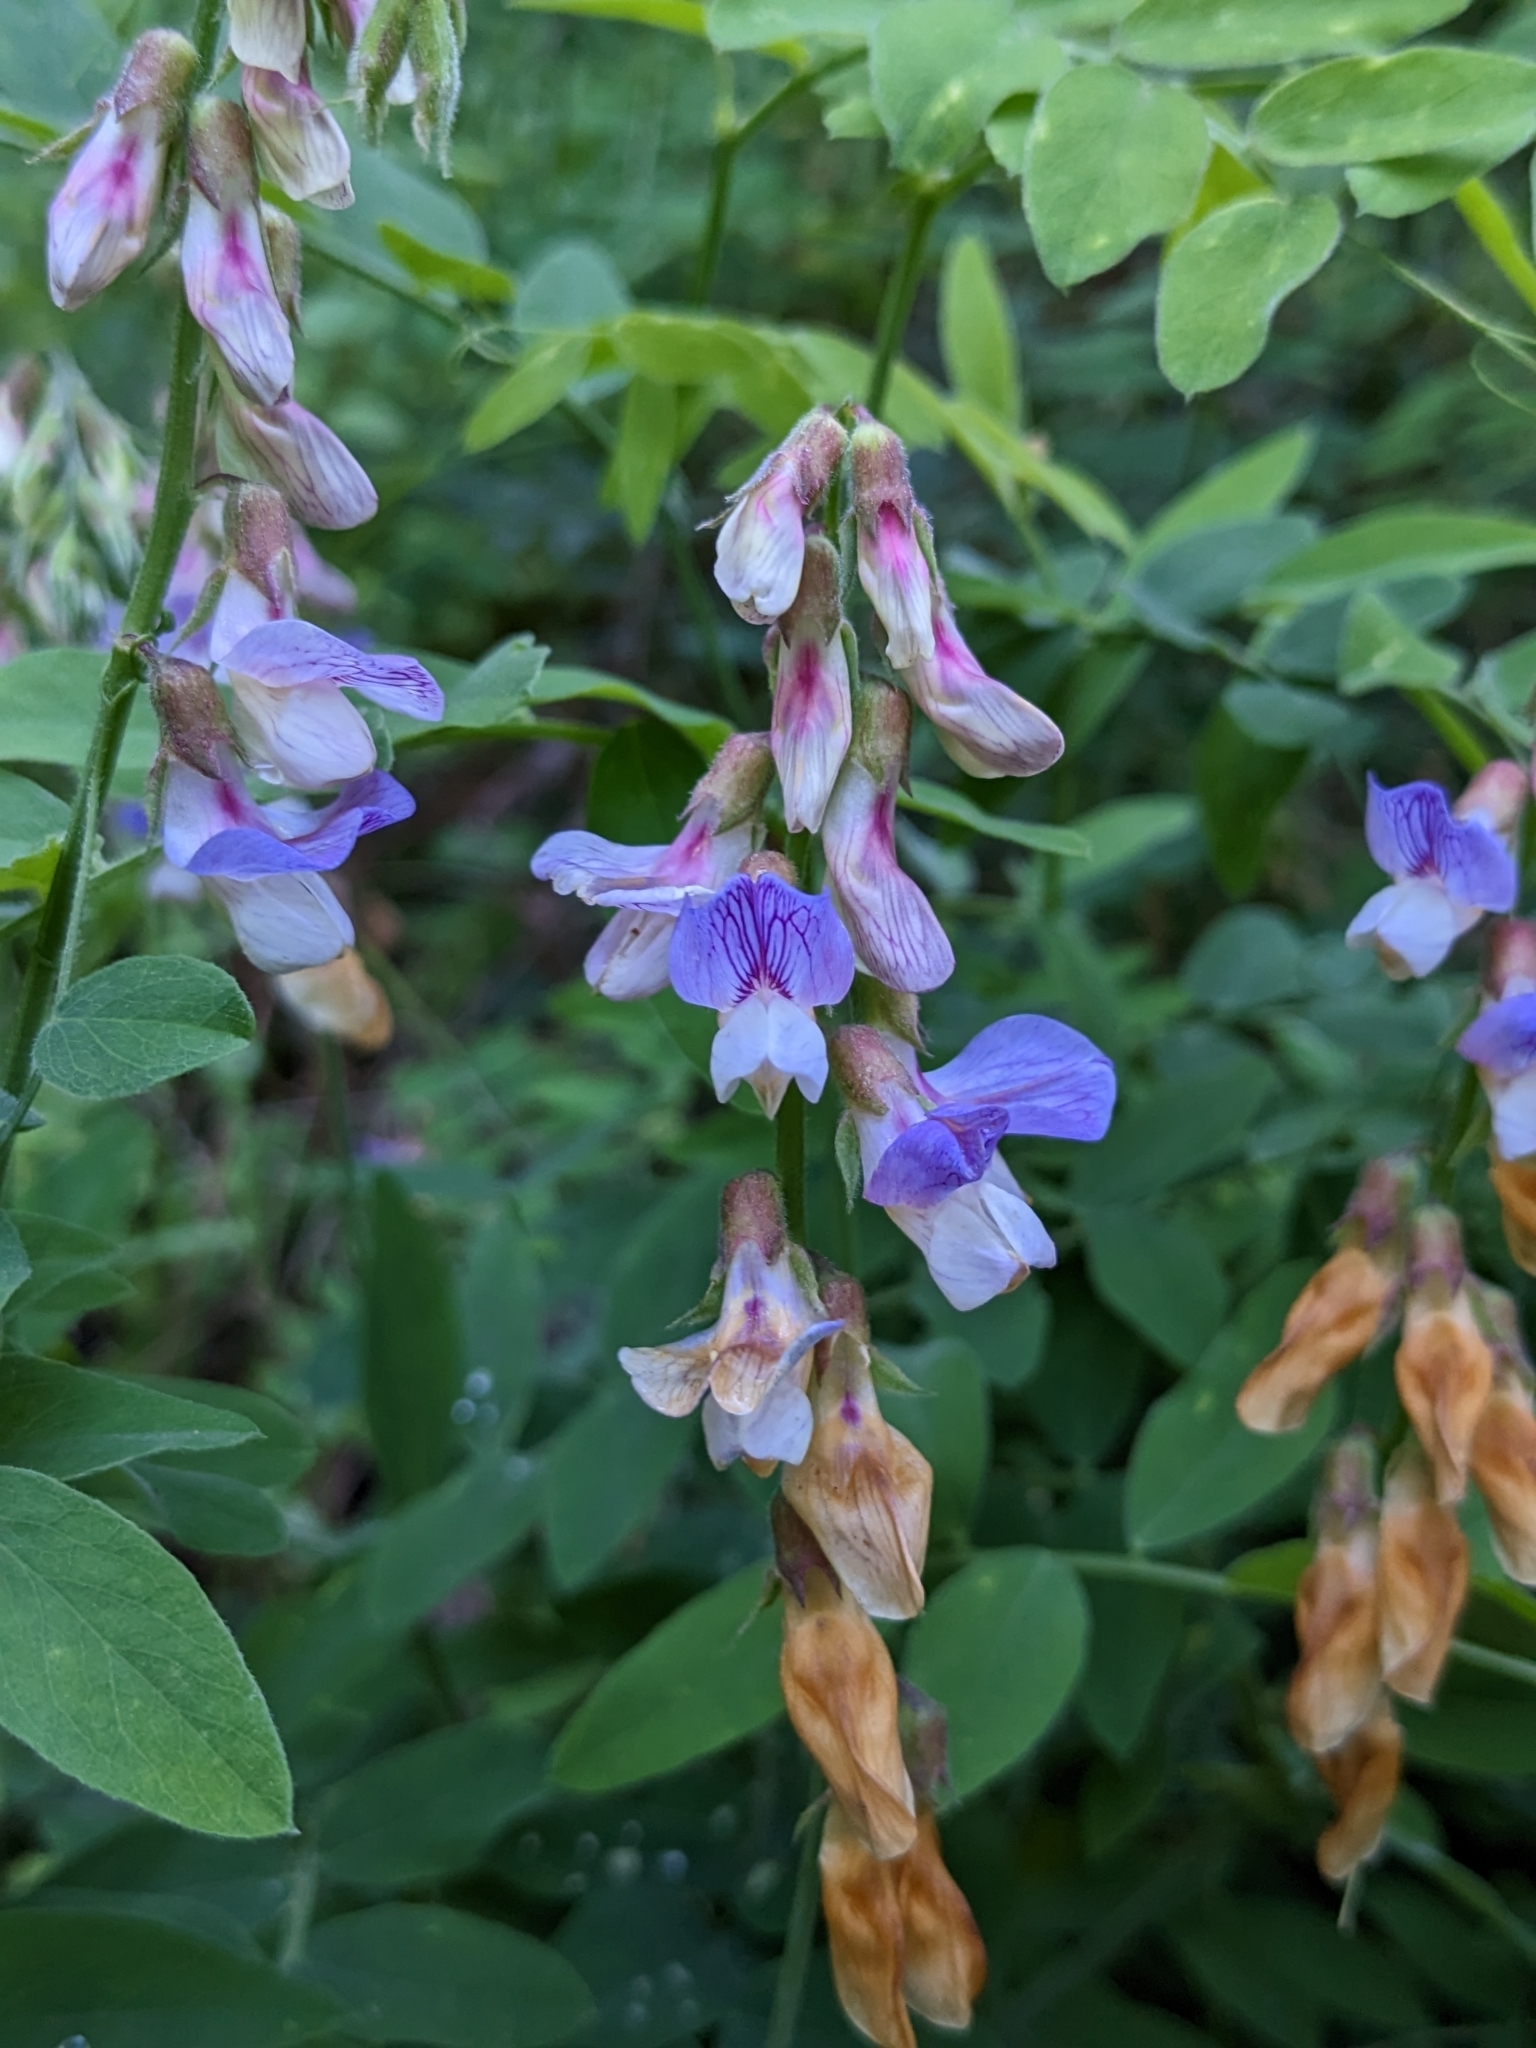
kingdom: Plantae
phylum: Tracheophyta
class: Magnoliopsida
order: Fabales
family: Fabaceae
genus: Lathyrus
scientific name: Lathyrus vestitus
